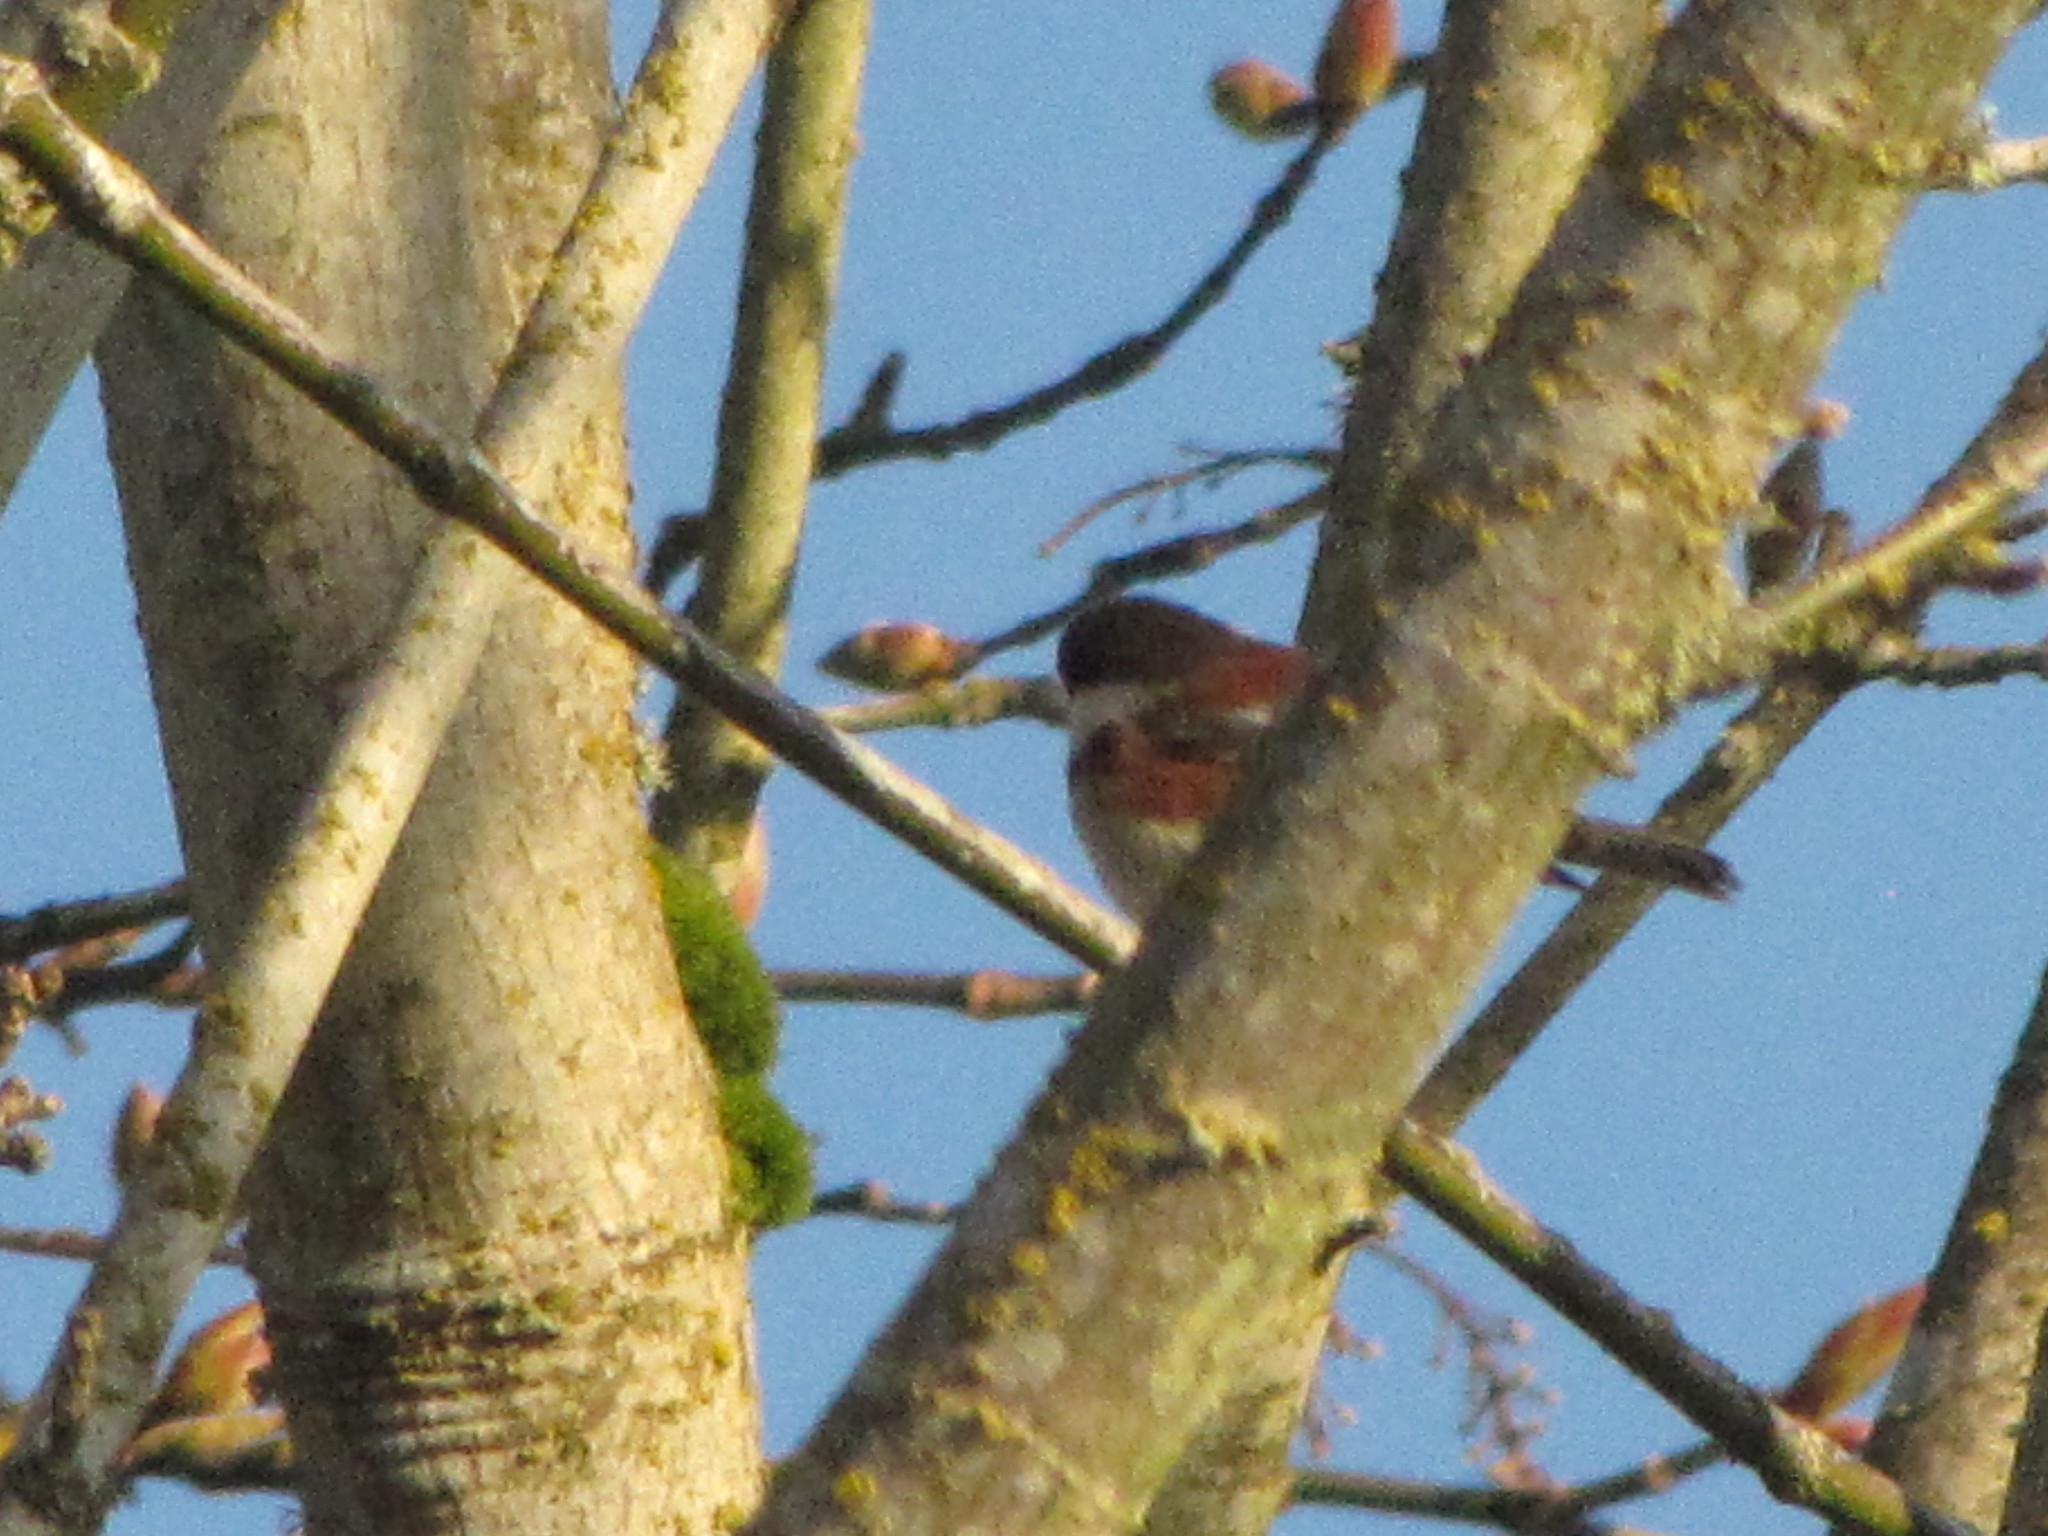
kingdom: Animalia
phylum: Chordata
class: Aves
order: Passeriformes
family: Paridae
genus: Poecile
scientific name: Poecile rufescens
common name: Chestnut-backed chickadee
